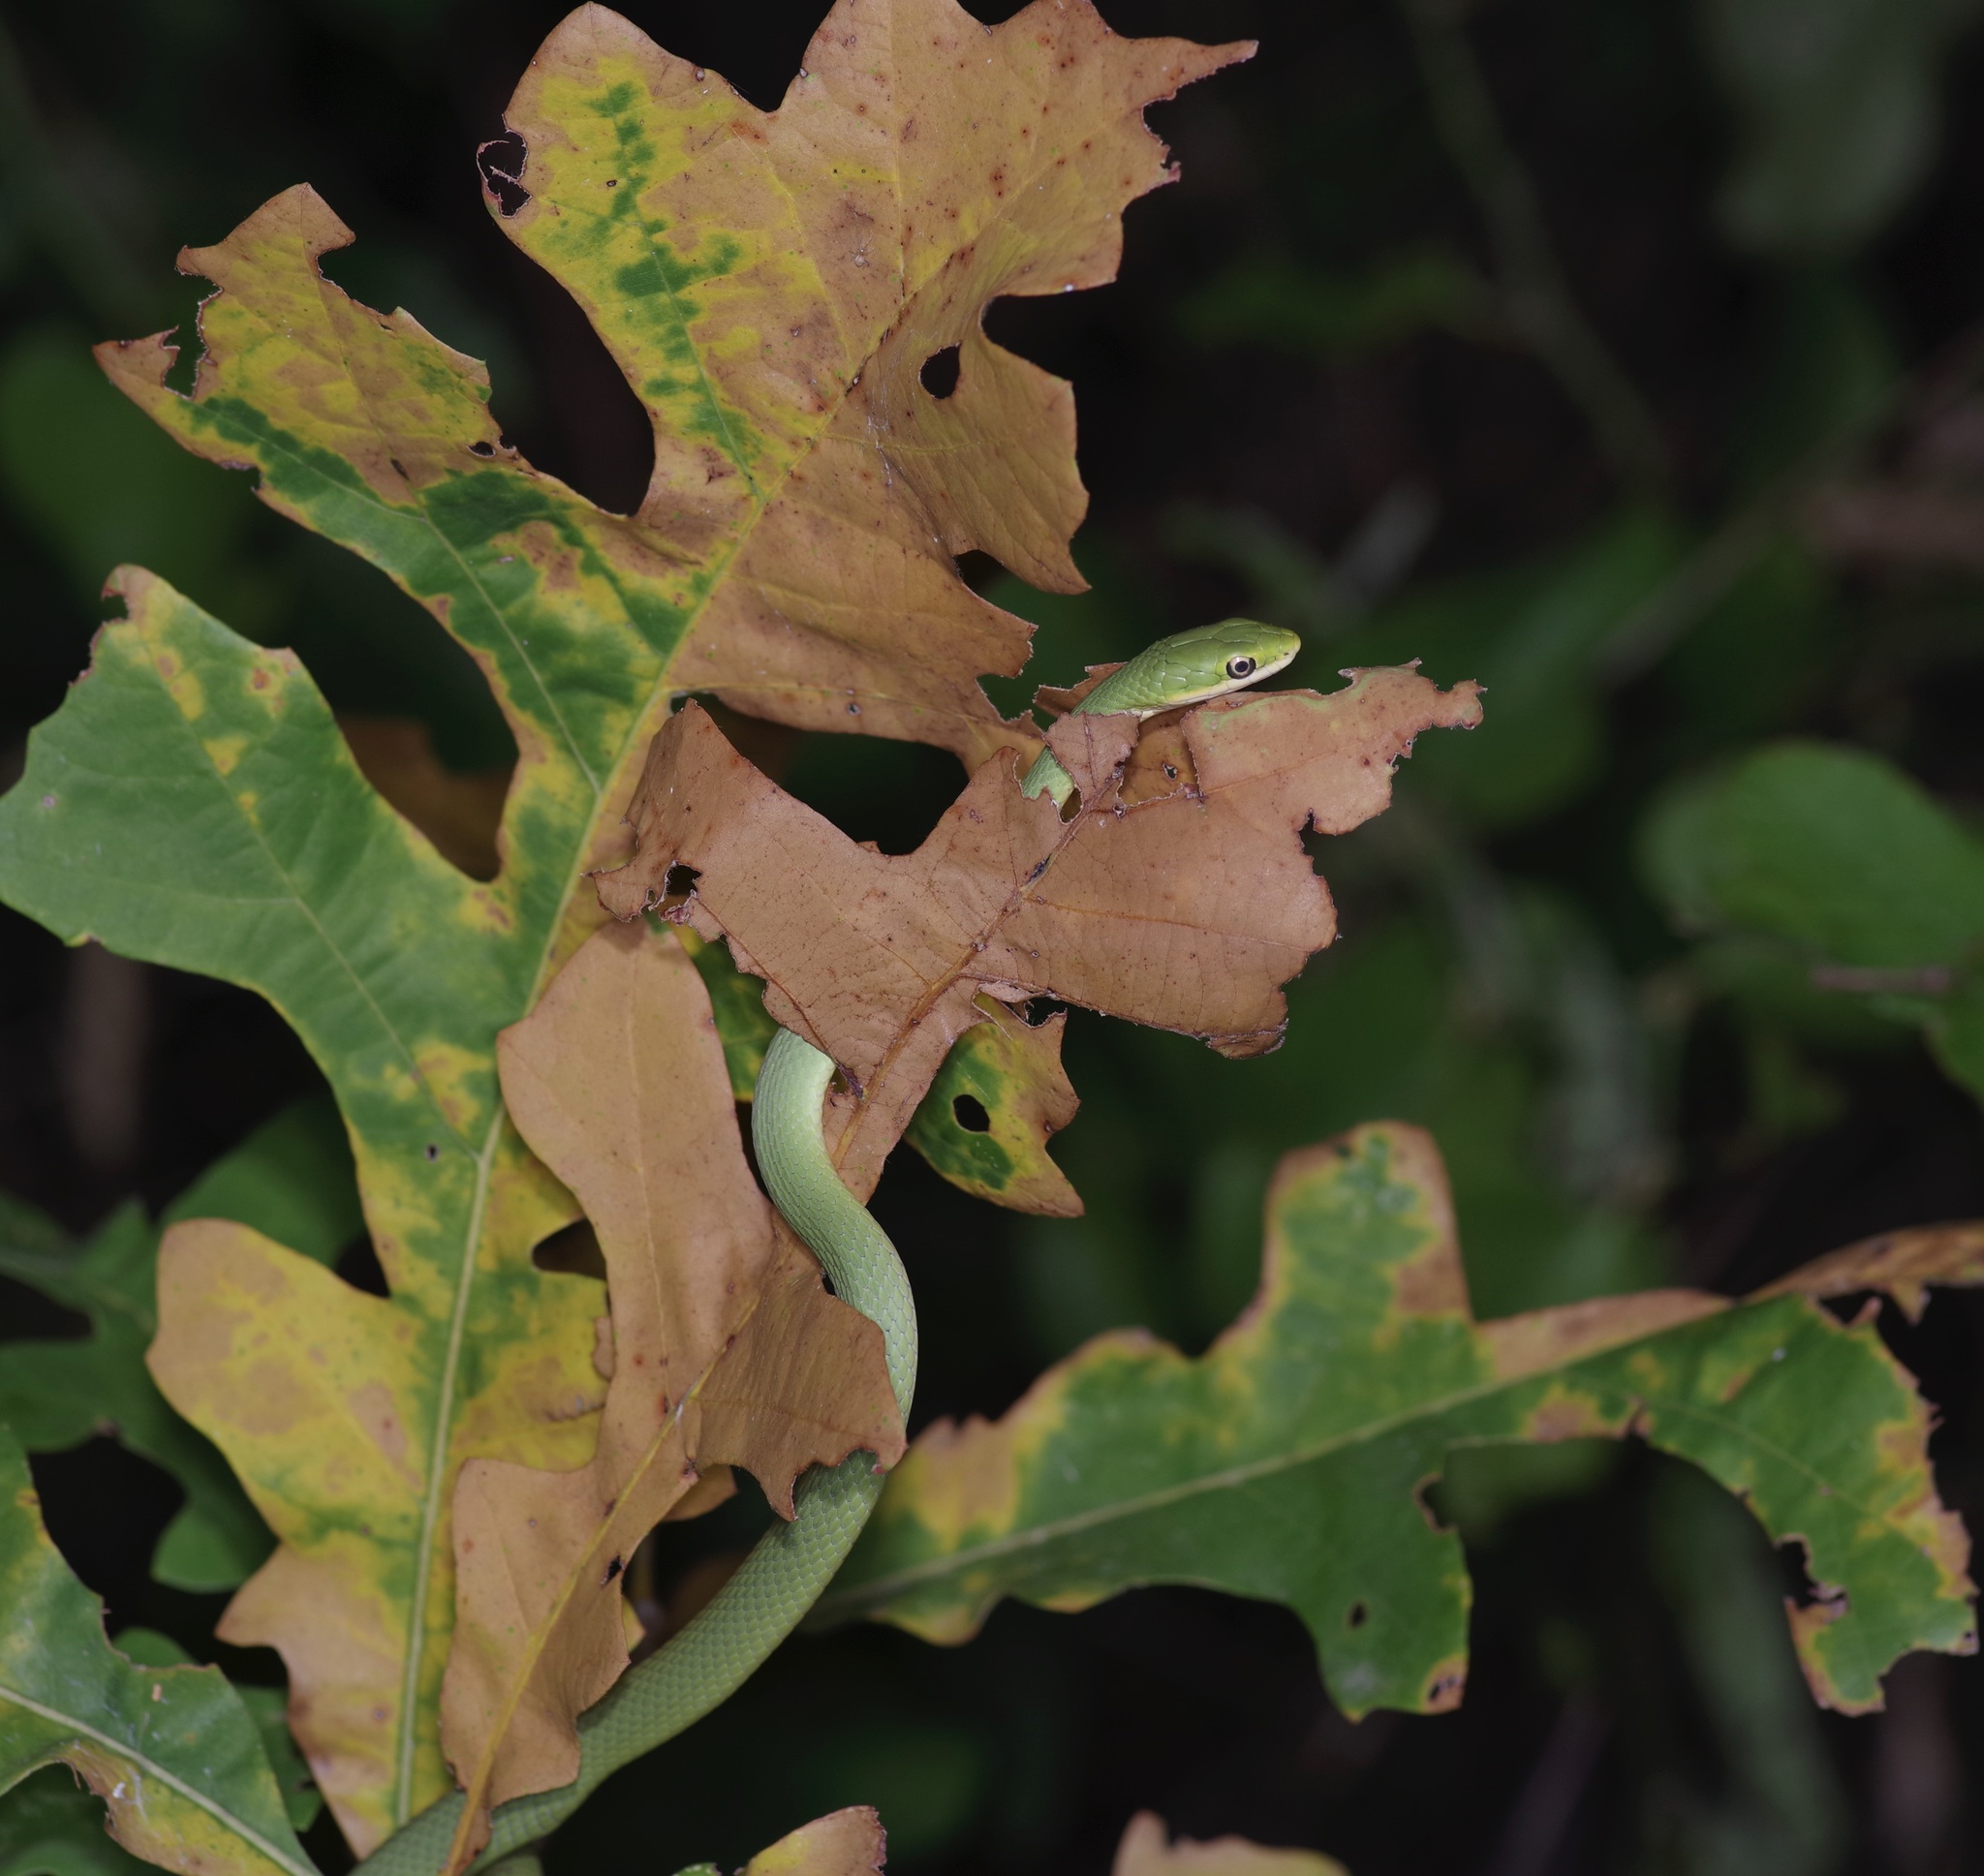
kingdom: Animalia
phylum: Chordata
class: Squamata
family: Colubridae
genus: Opheodrys
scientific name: Opheodrys aestivus
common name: Rough greensnake
